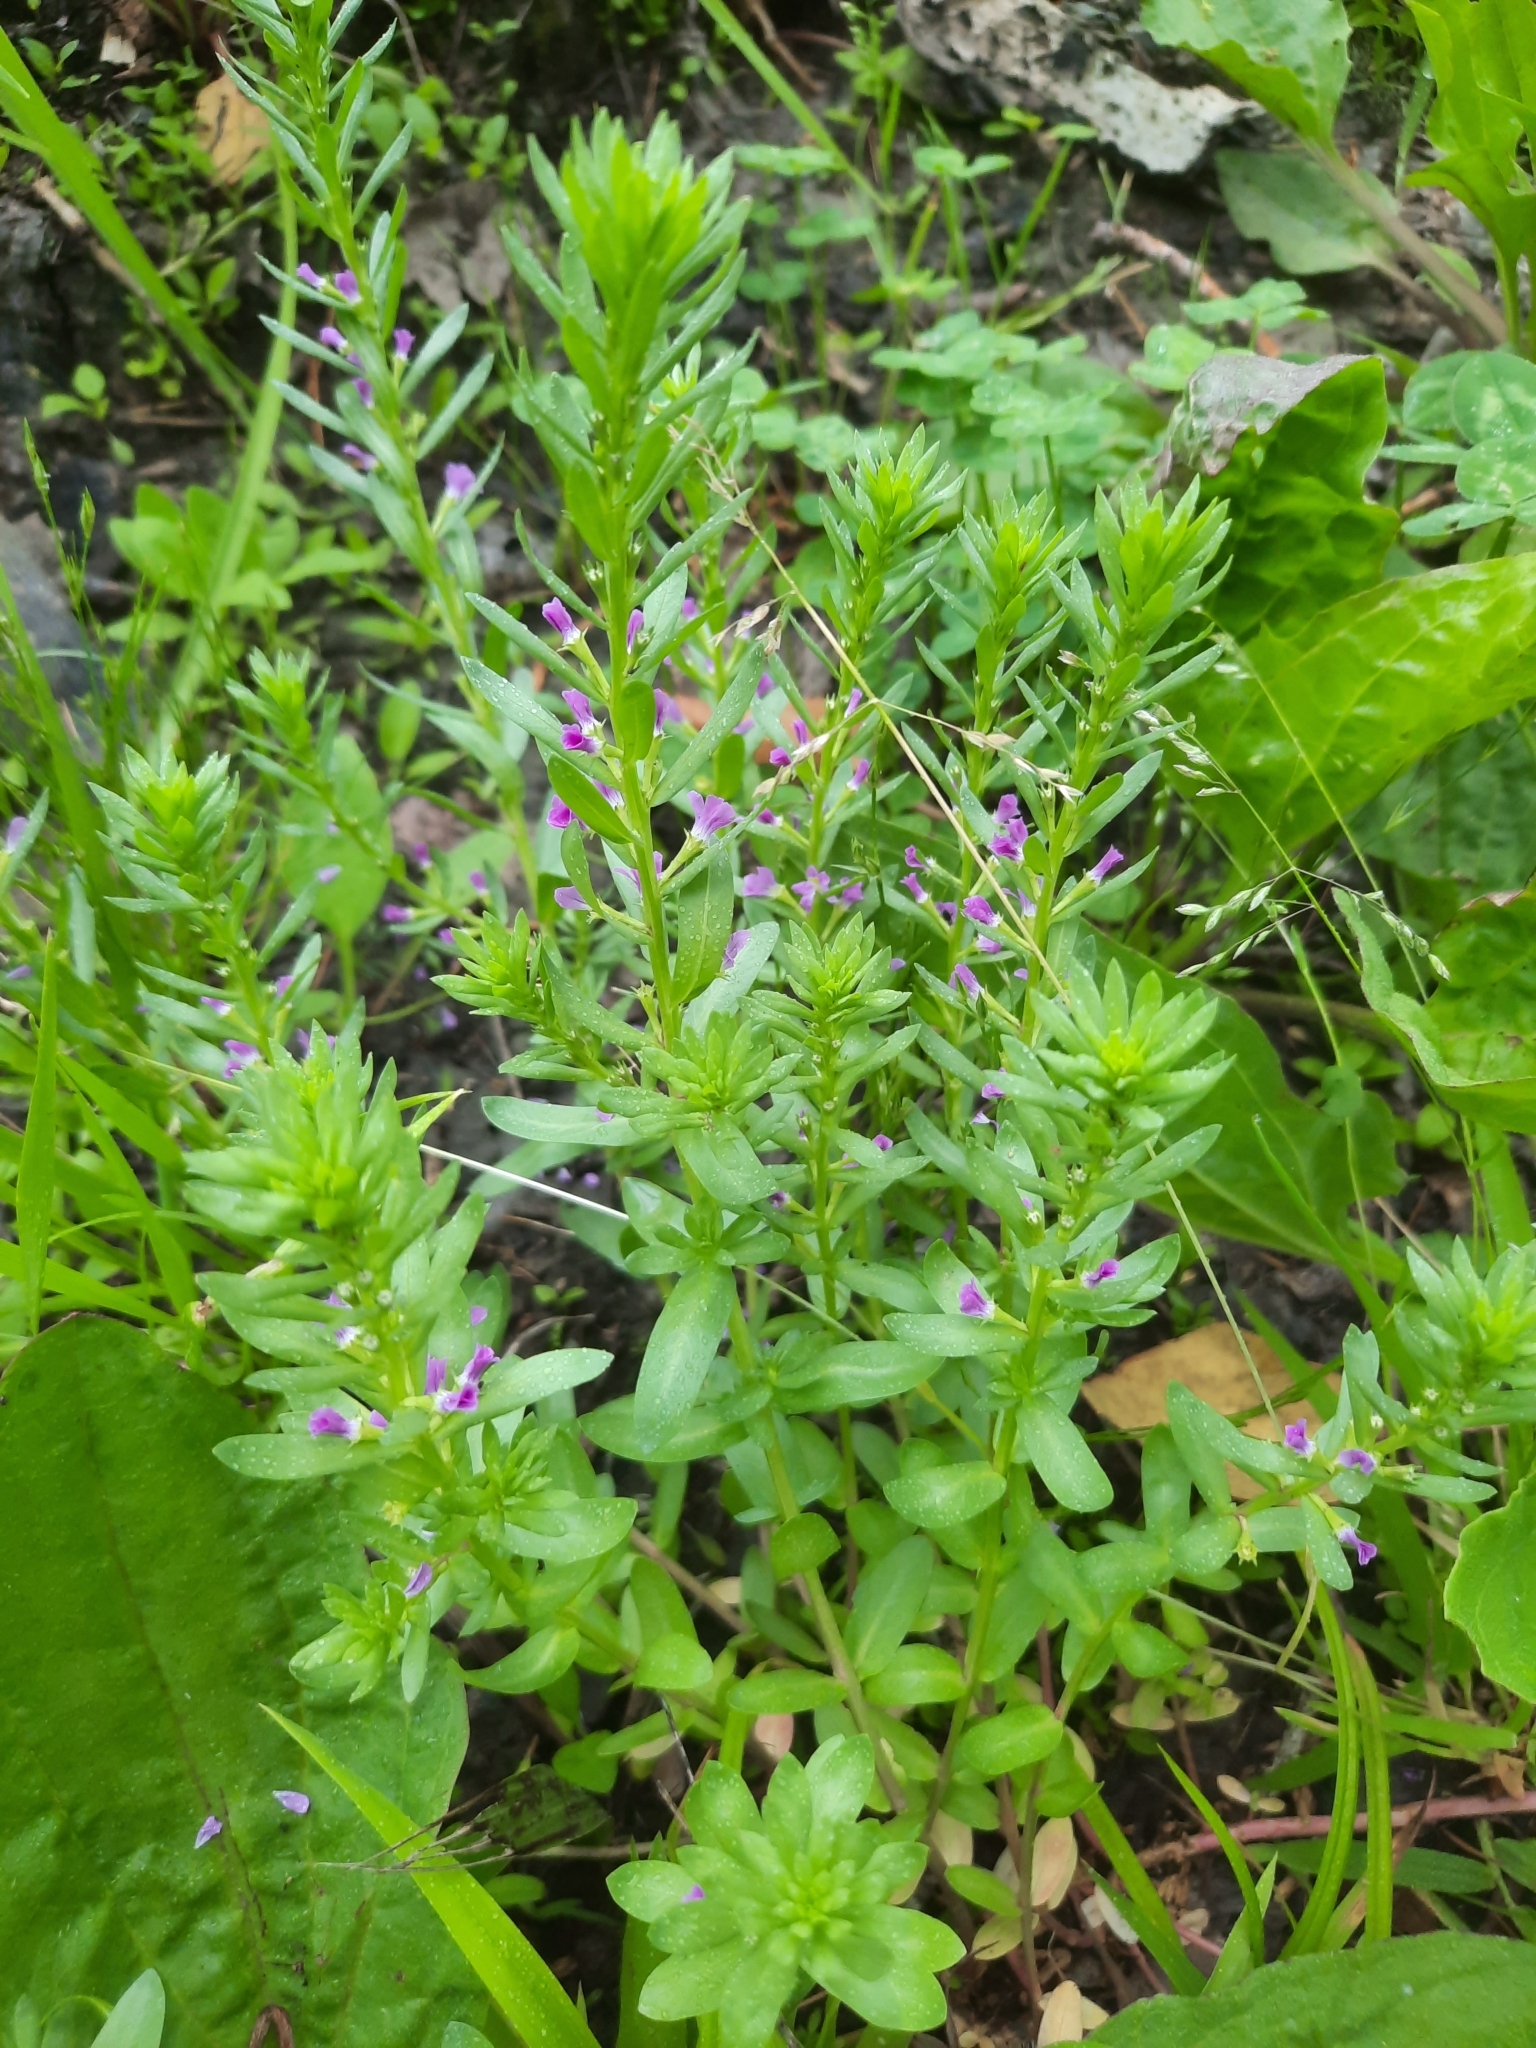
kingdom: Plantae
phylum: Tracheophyta
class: Magnoliopsida
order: Myrtales
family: Lythraceae
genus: Lythrum
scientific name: Lythrum hyssopifolia
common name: Grass-poly
